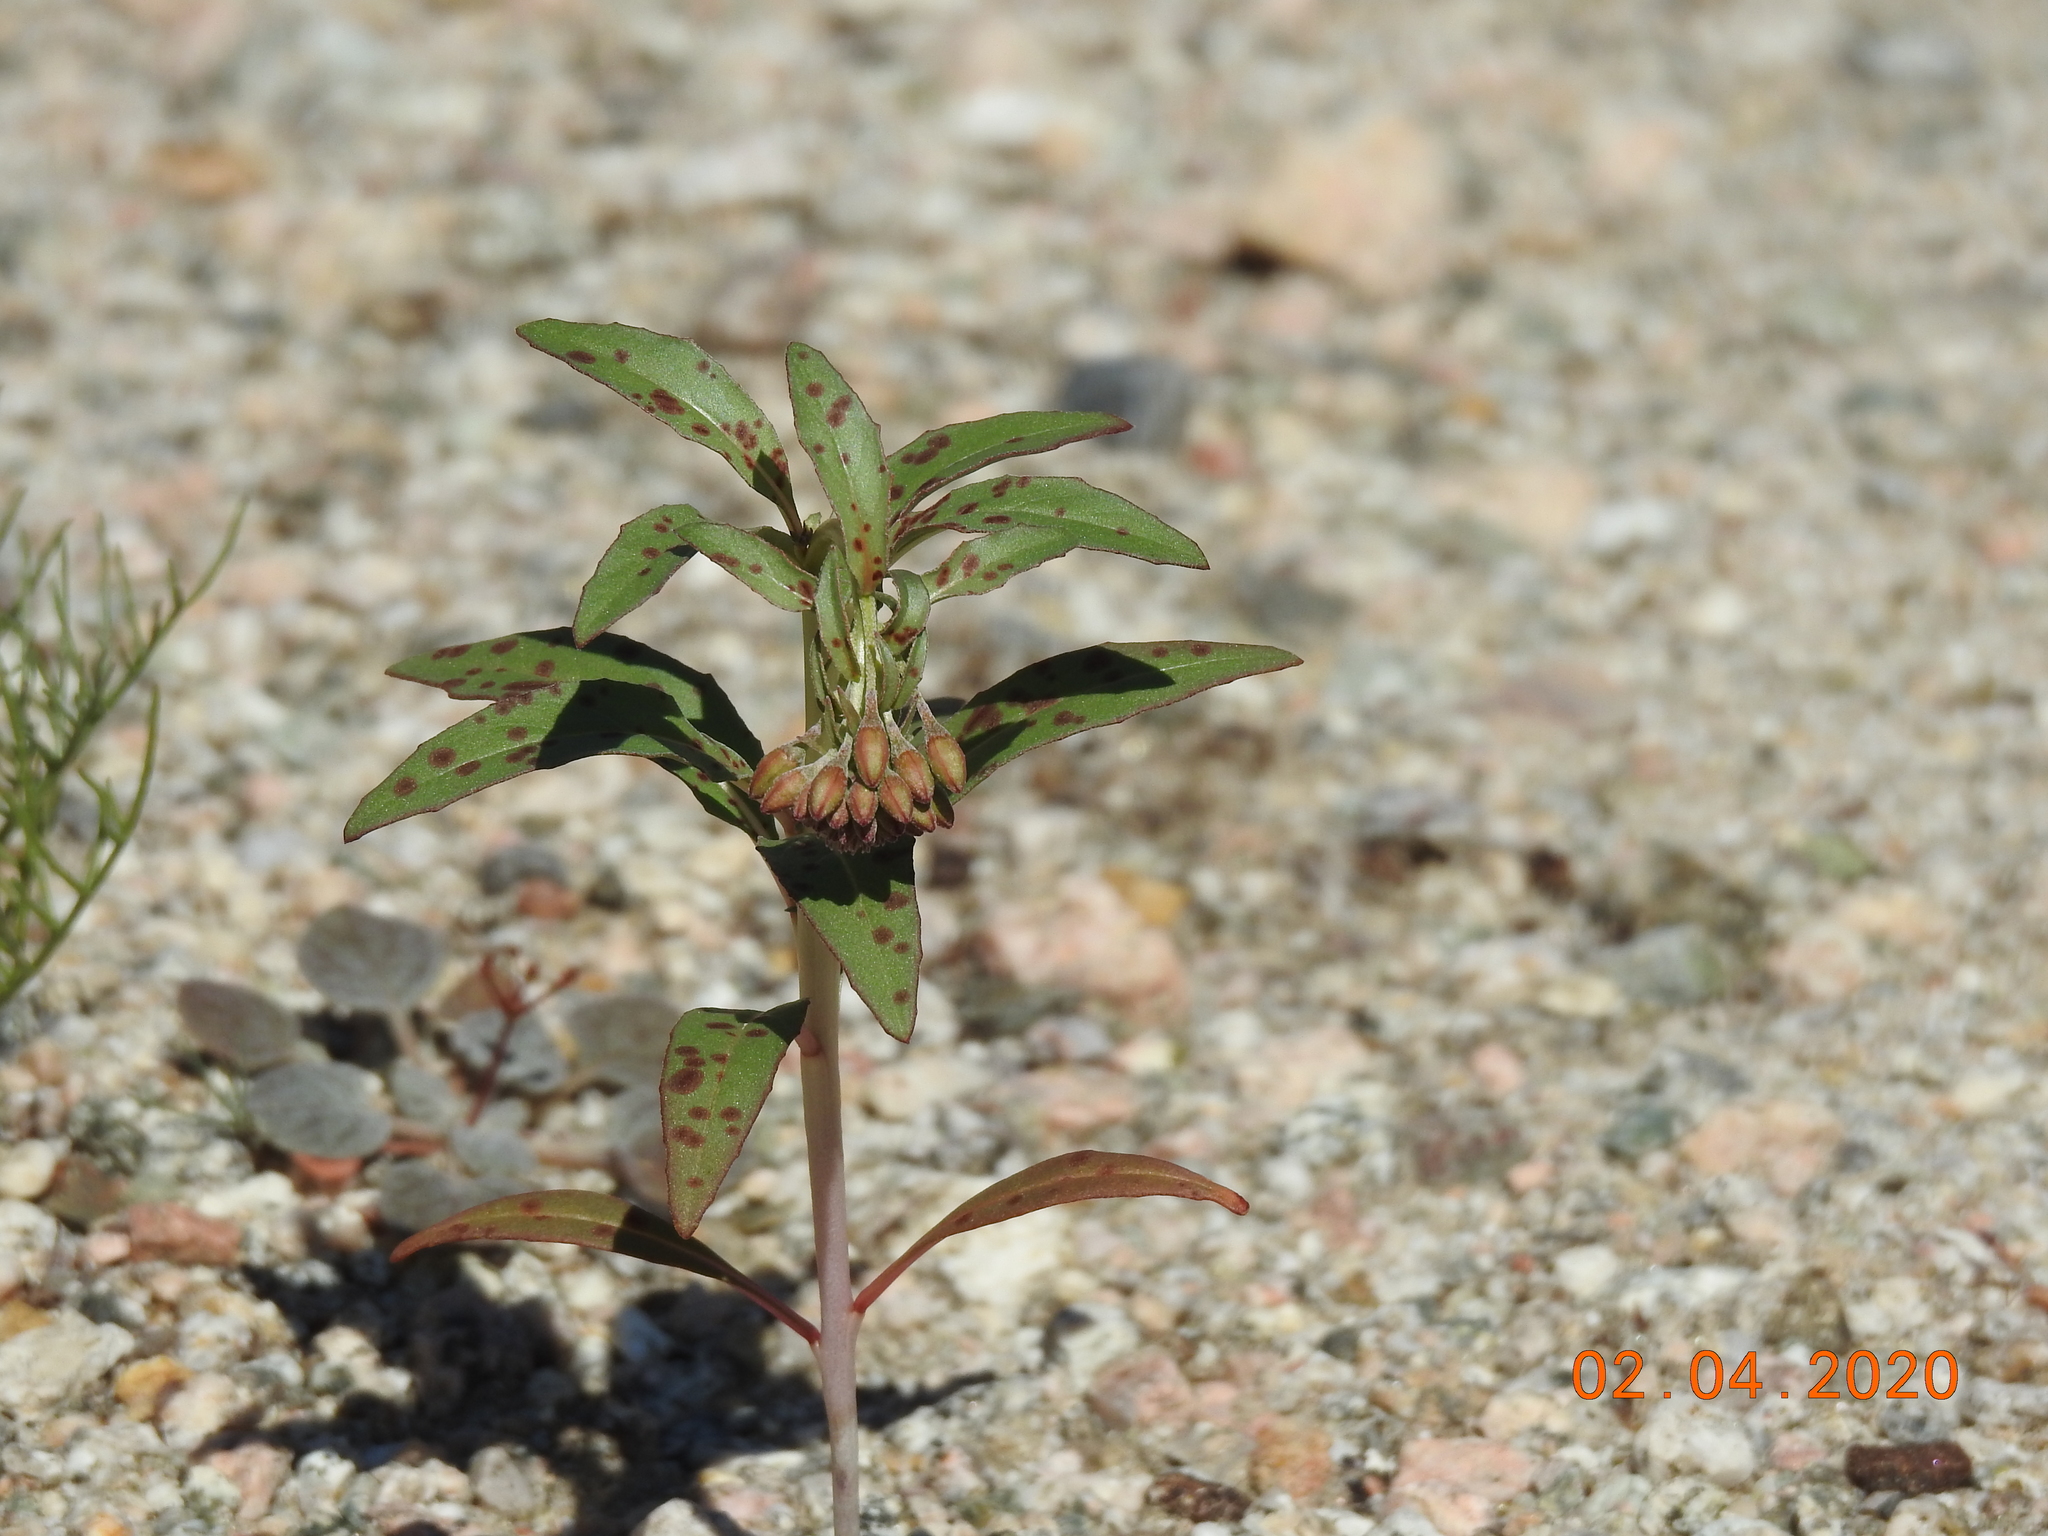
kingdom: Plantae
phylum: Tracheophyta
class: Magnoliopsida
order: Myrtales
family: Onagraceae
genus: Eremothera
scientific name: Eremothera boothii
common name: Booth's evening primrose
